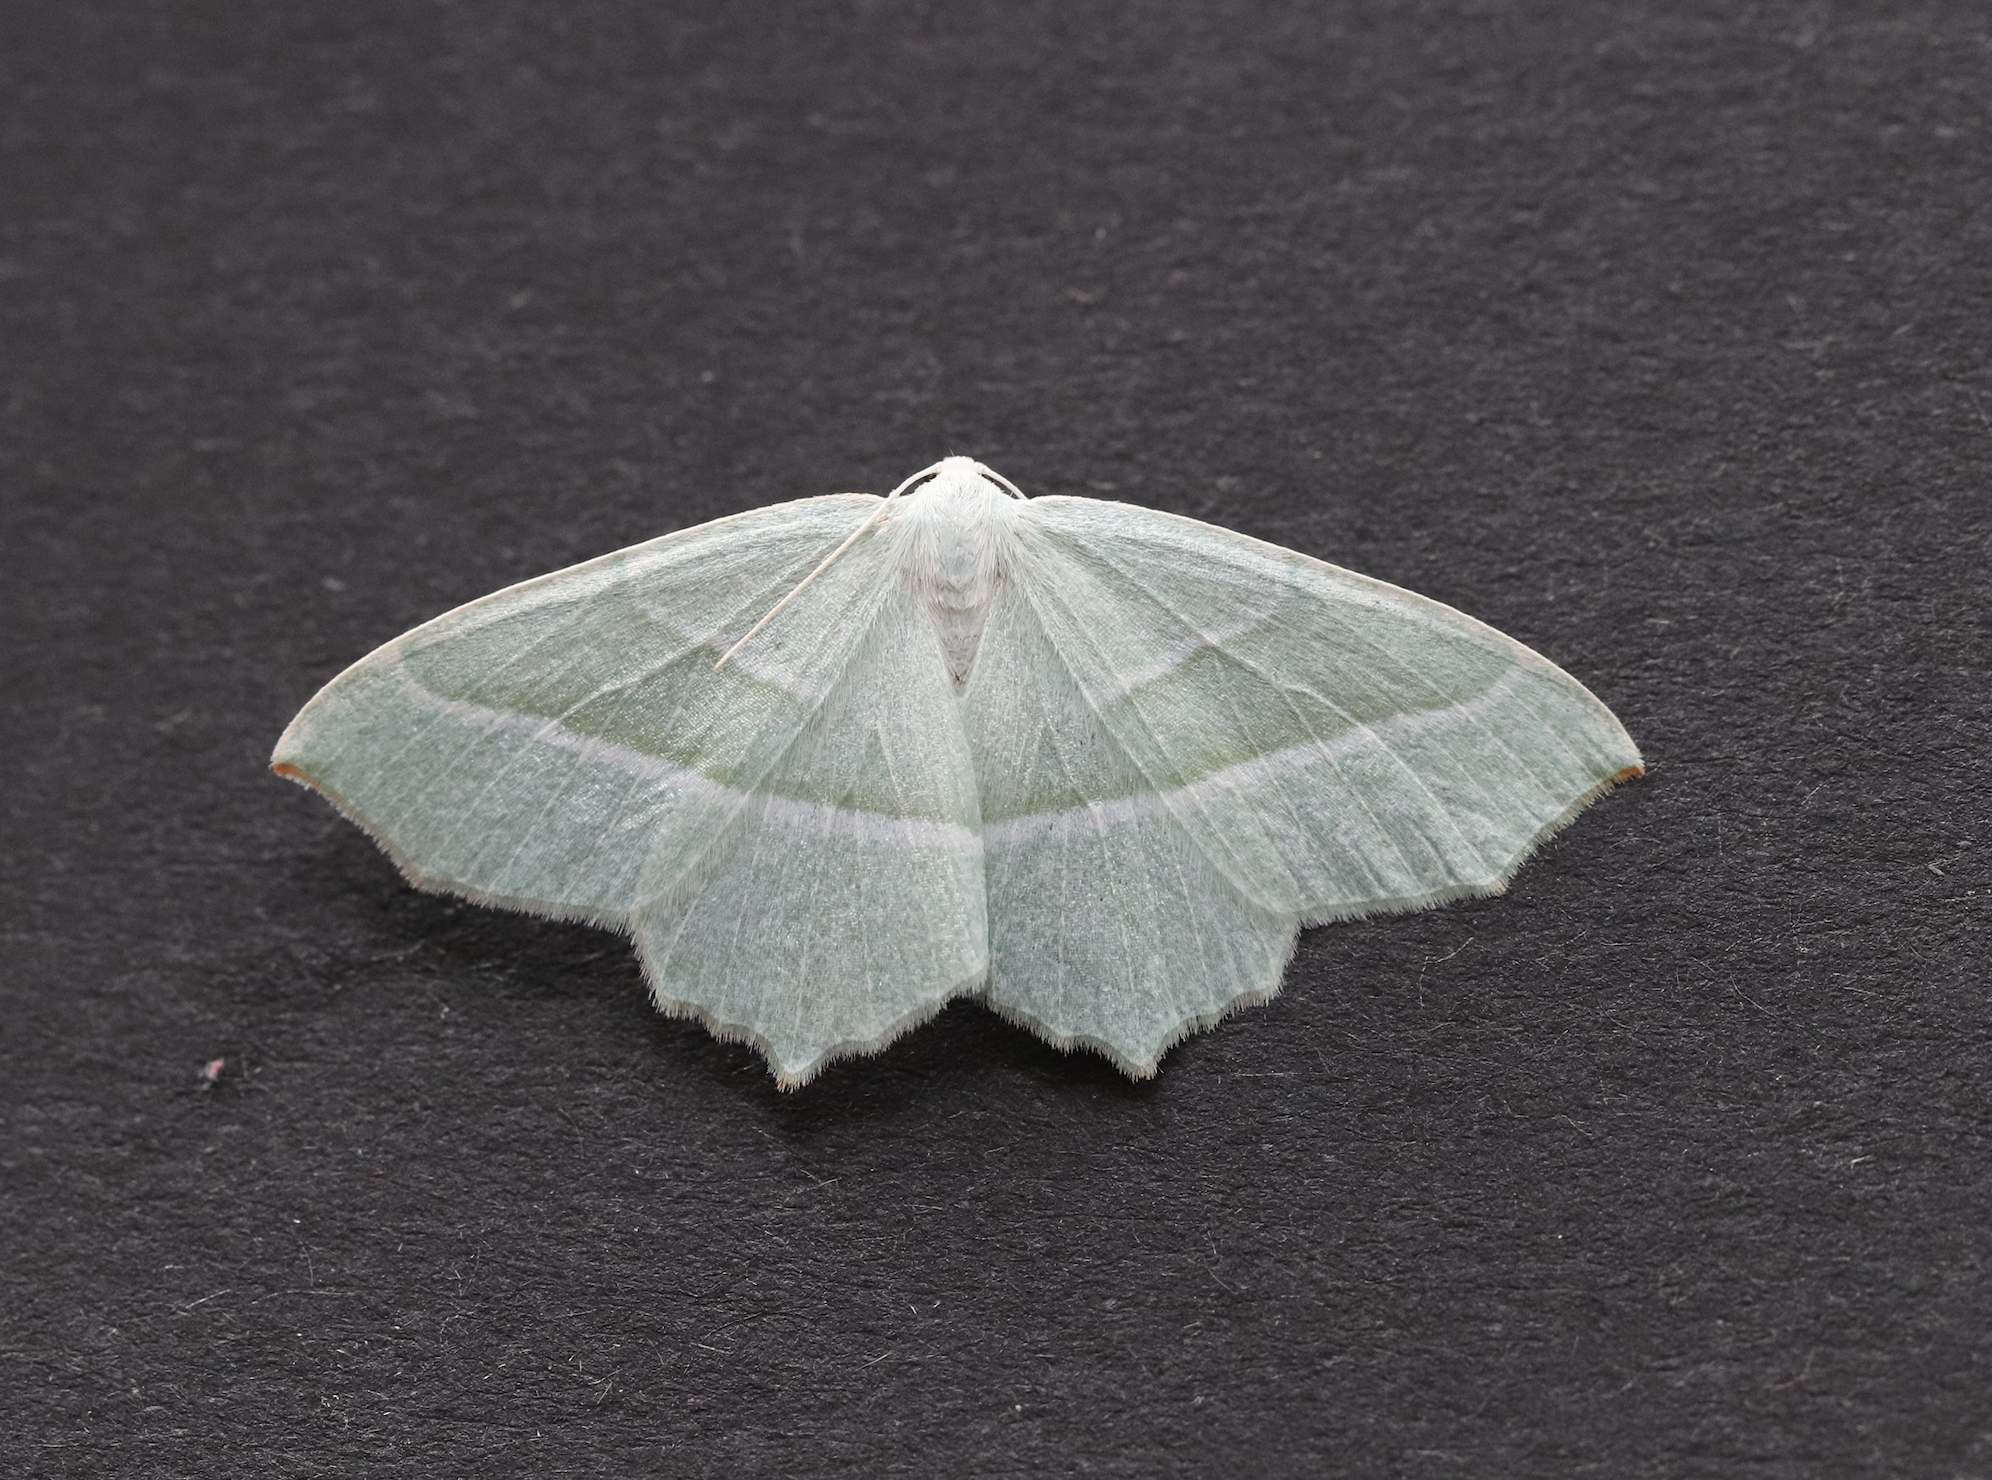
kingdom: Animalia
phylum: Arthropoda
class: Insecta
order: Lepidoptera
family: Geometridae
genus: Campaea
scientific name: Campaea margaritaria
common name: Light emerald
